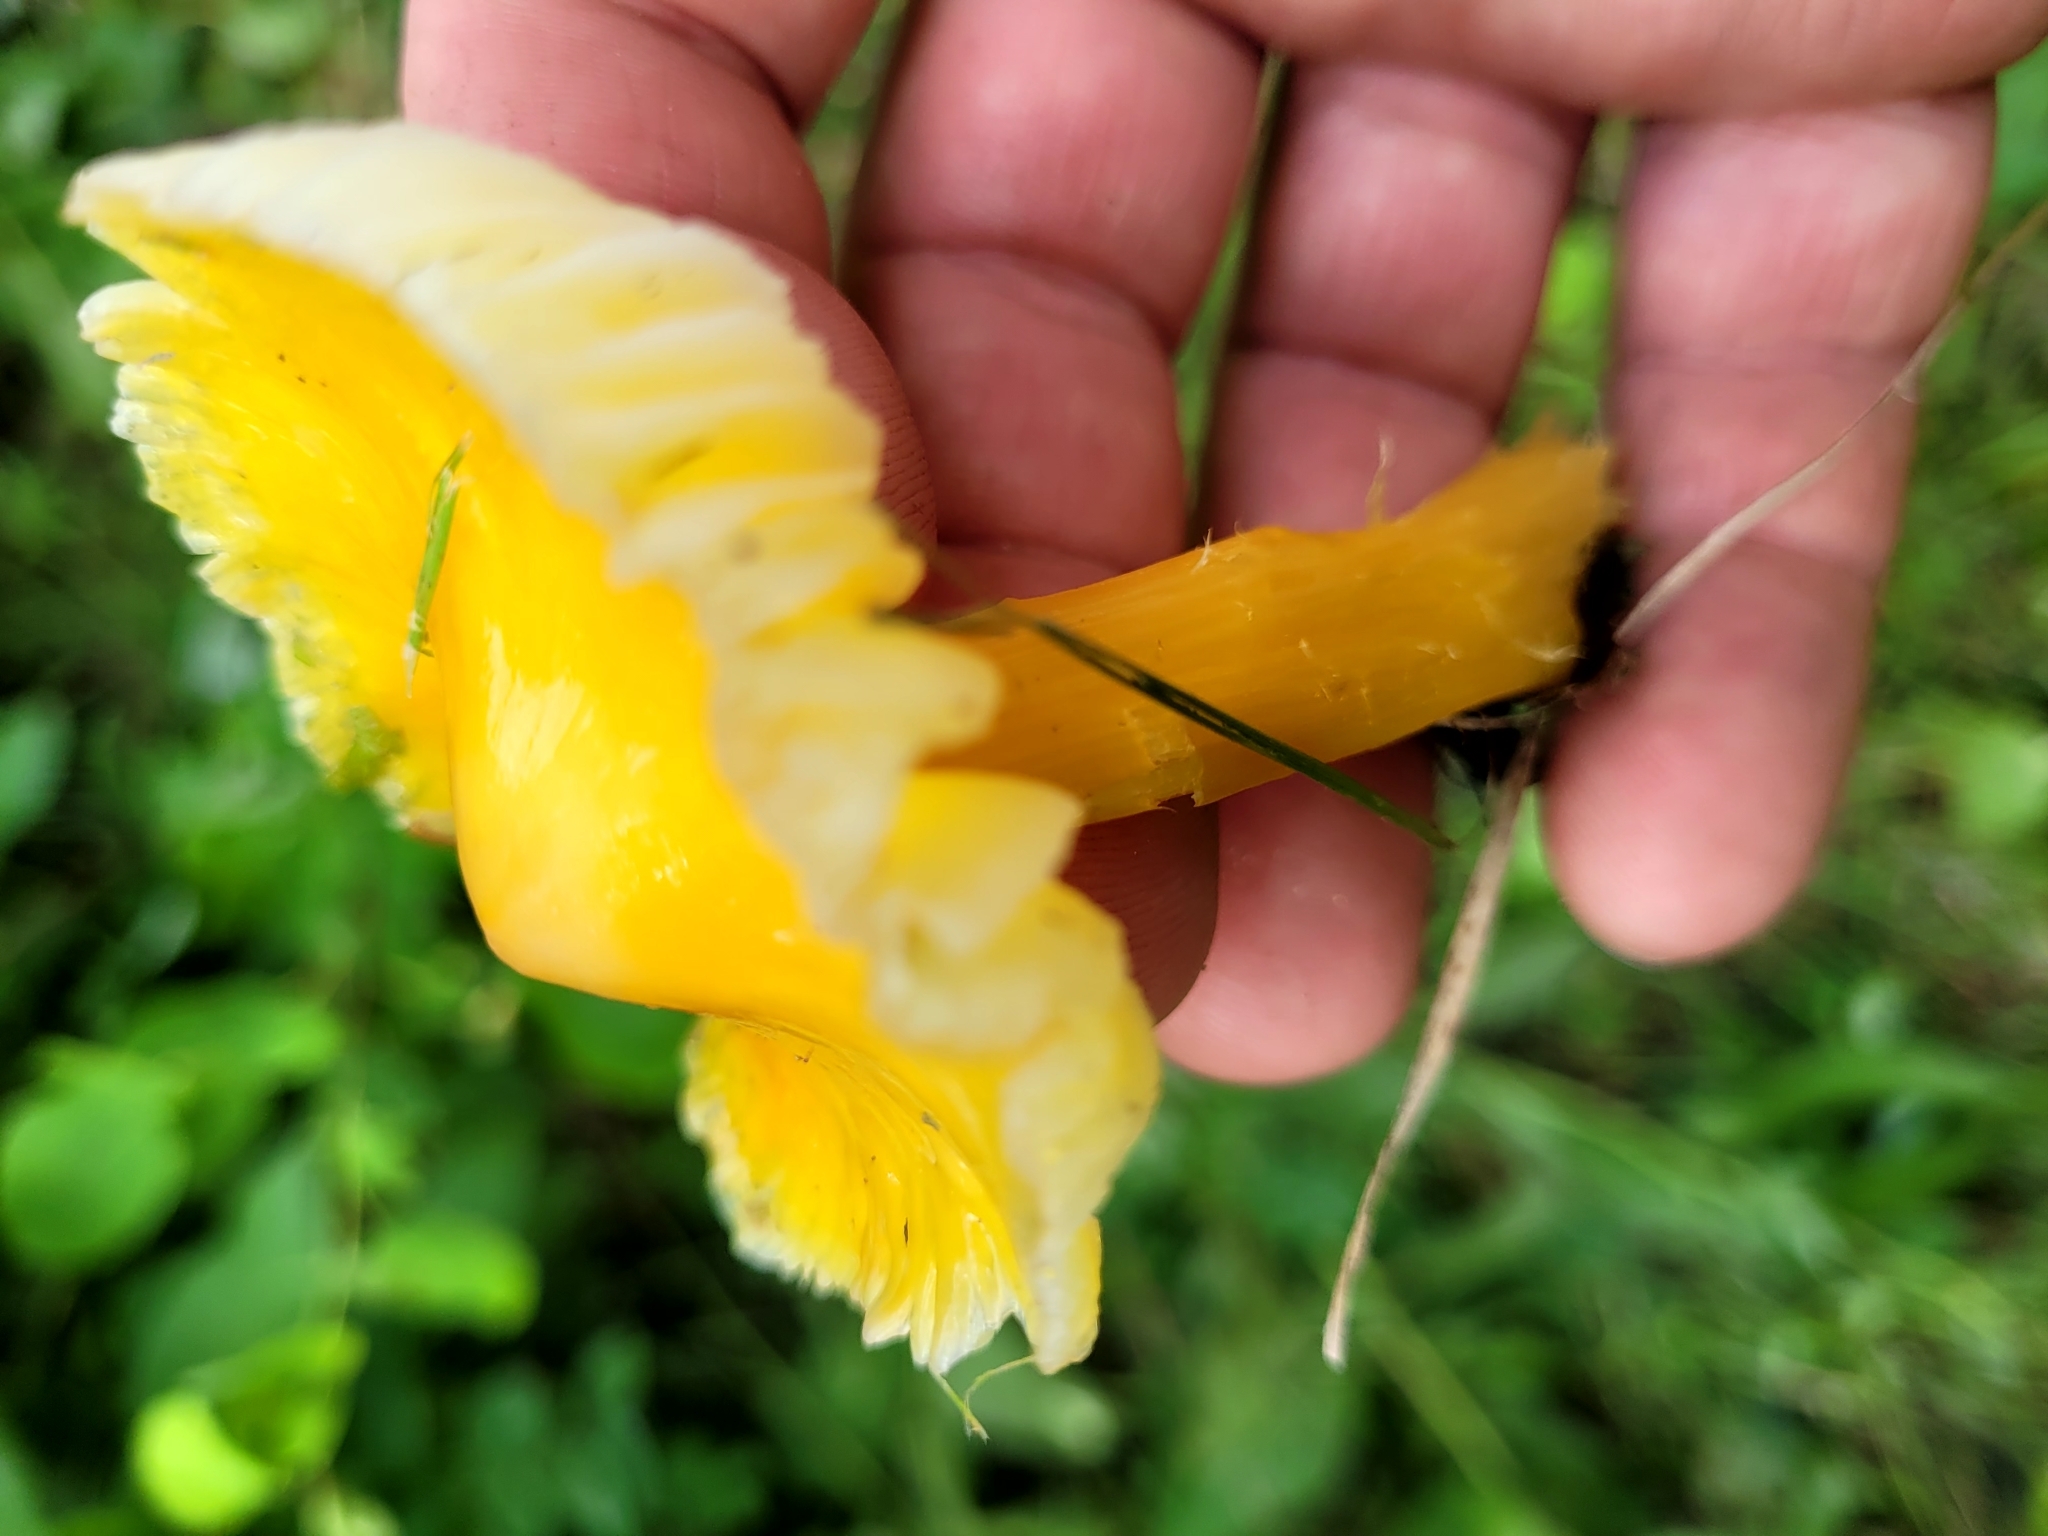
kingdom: Fungi
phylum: Basidiomycota
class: Agaricomycetes
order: Agaricales
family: Hygrophoraceae
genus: Hygrocybe
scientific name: Hygrocybe acutoconica
